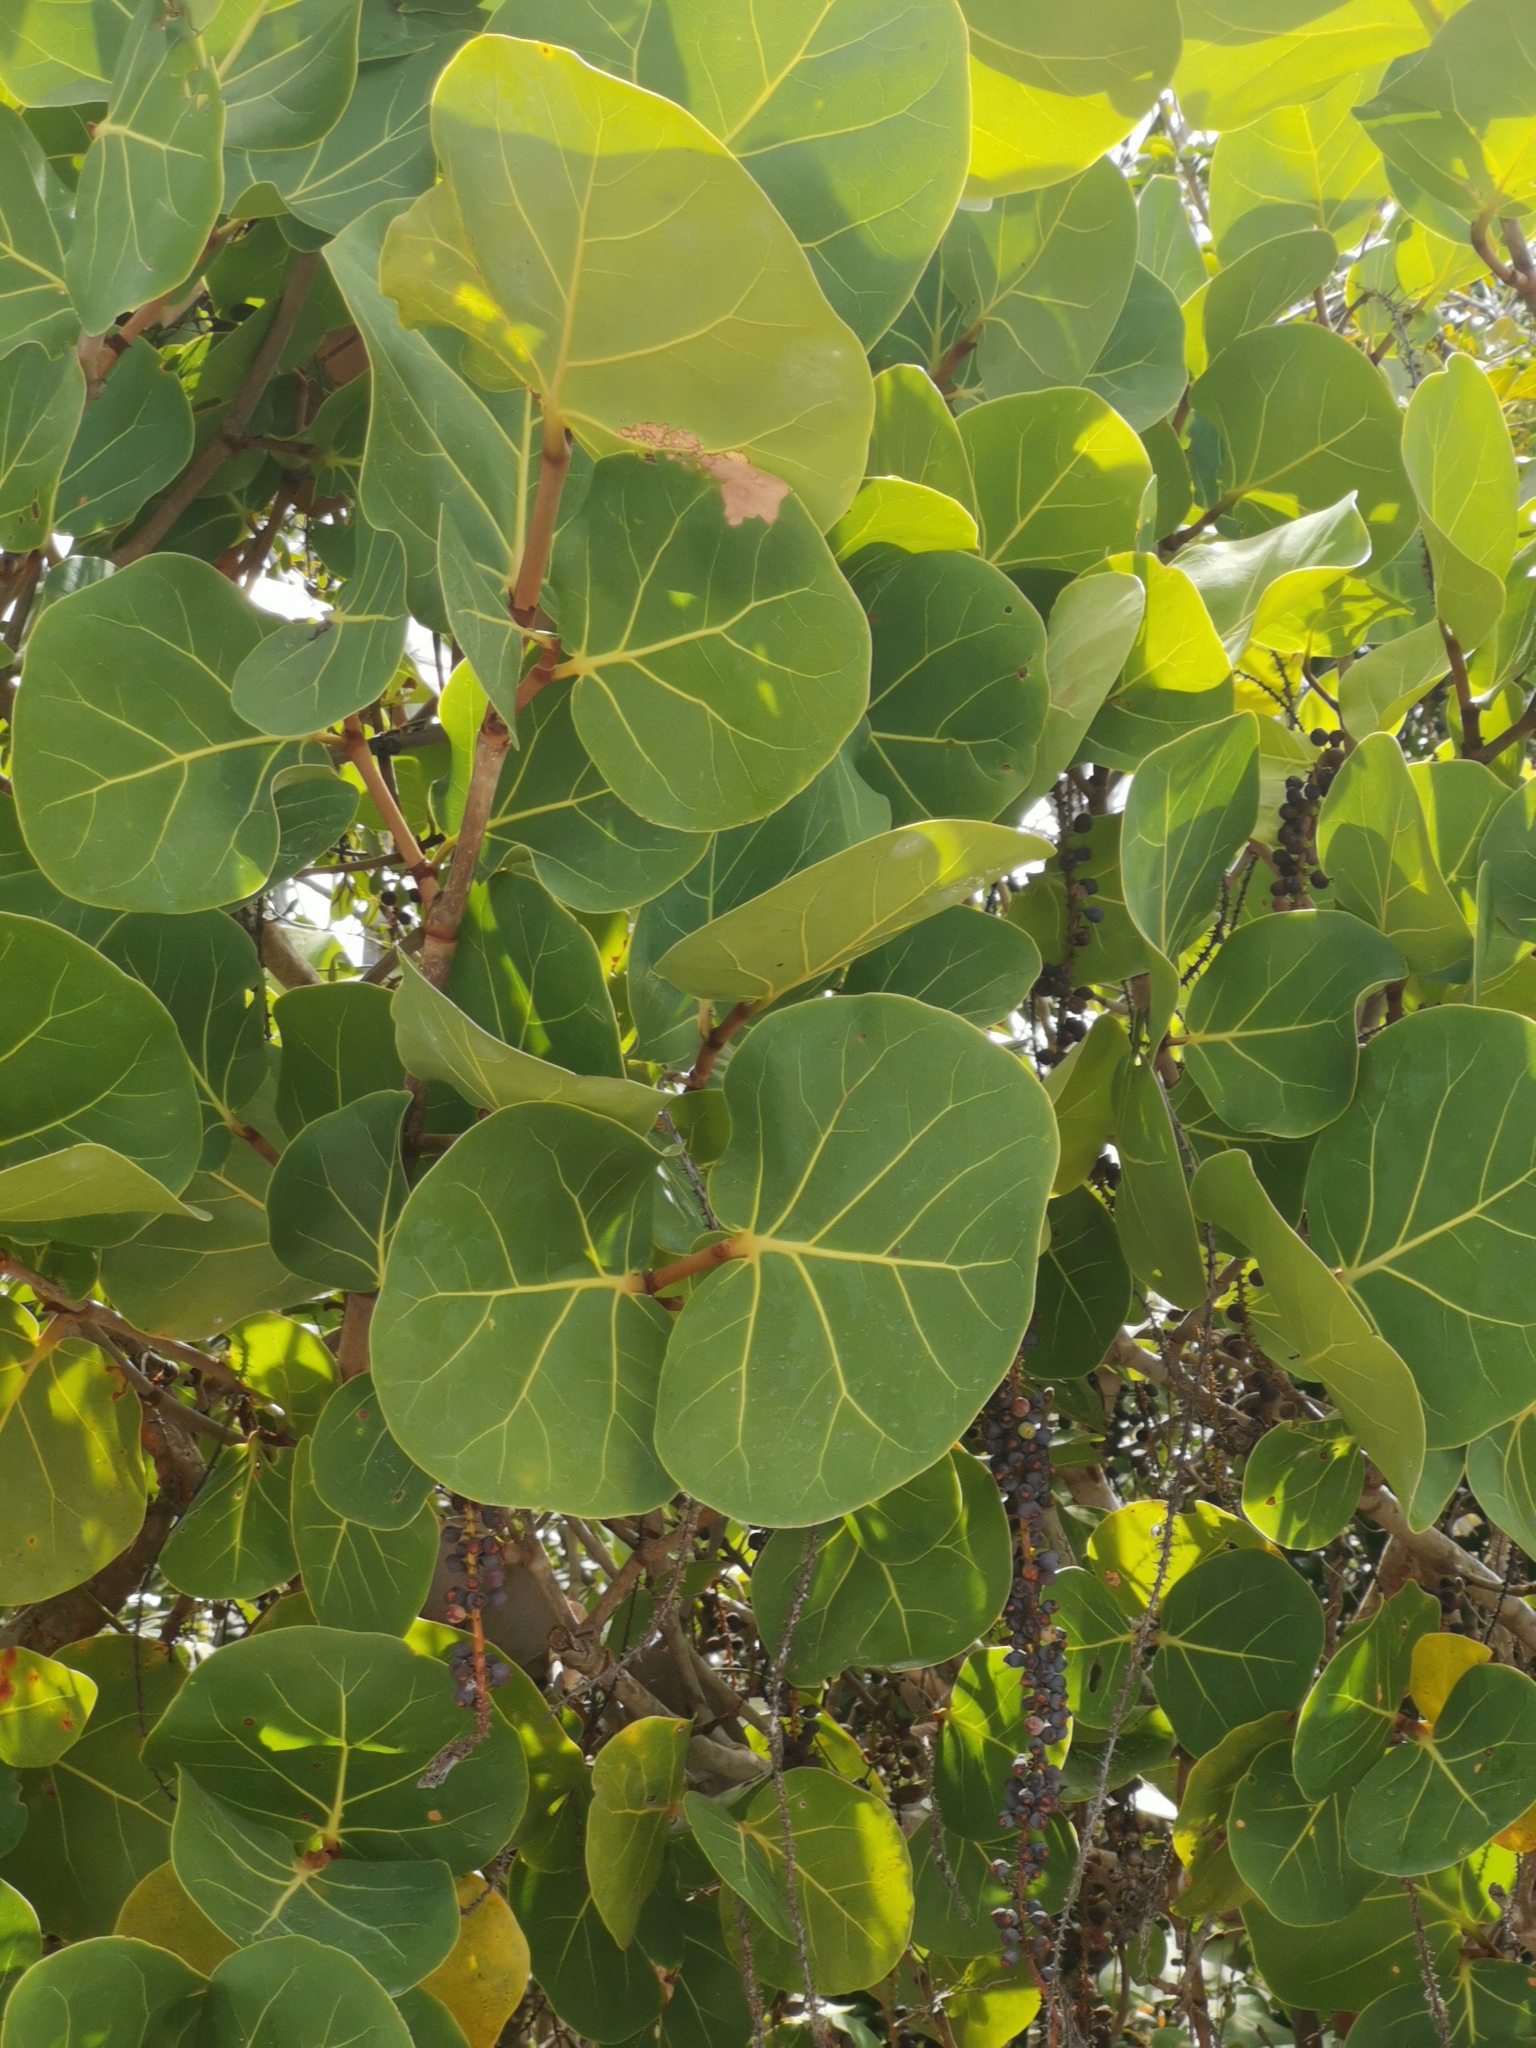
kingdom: Plantae
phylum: Tracheophyta
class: Magnoliopsida
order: Caryophyllales
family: Polygonaceae
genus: Coccoloba
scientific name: Coccoloba uvifera
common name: Seagrape
